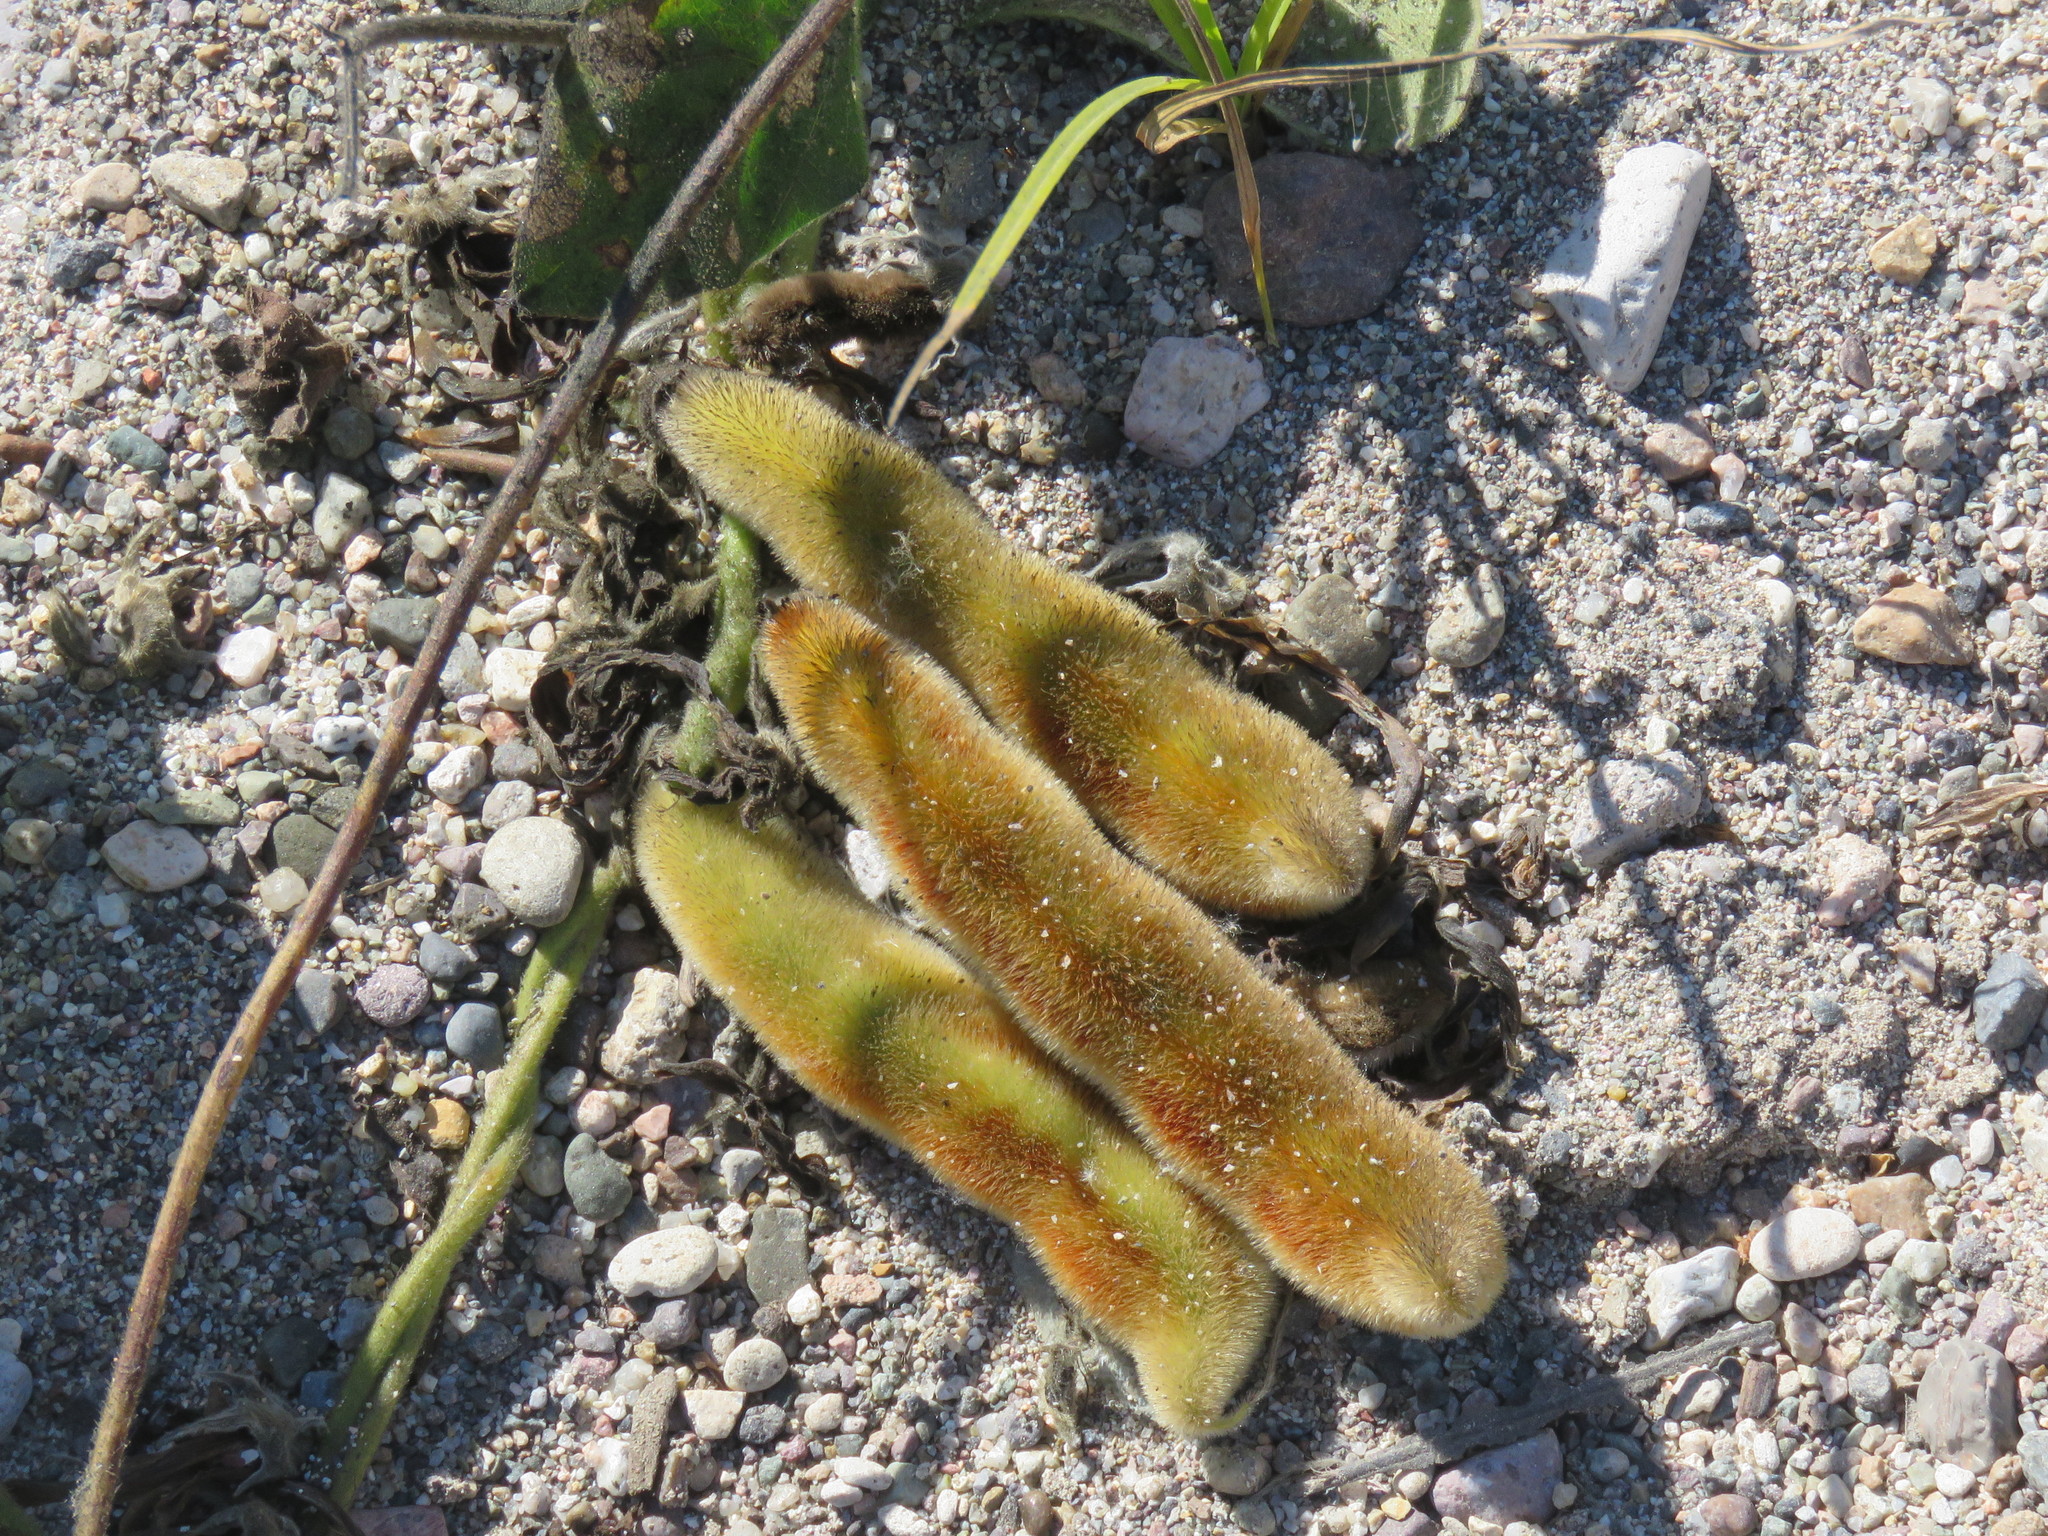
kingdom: Plantae
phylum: Tracheophyta
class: Magnoliopsida
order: Fabales
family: Fabaceae
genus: Mucuna
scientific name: Mucuna pruriens
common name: Cow-itch
